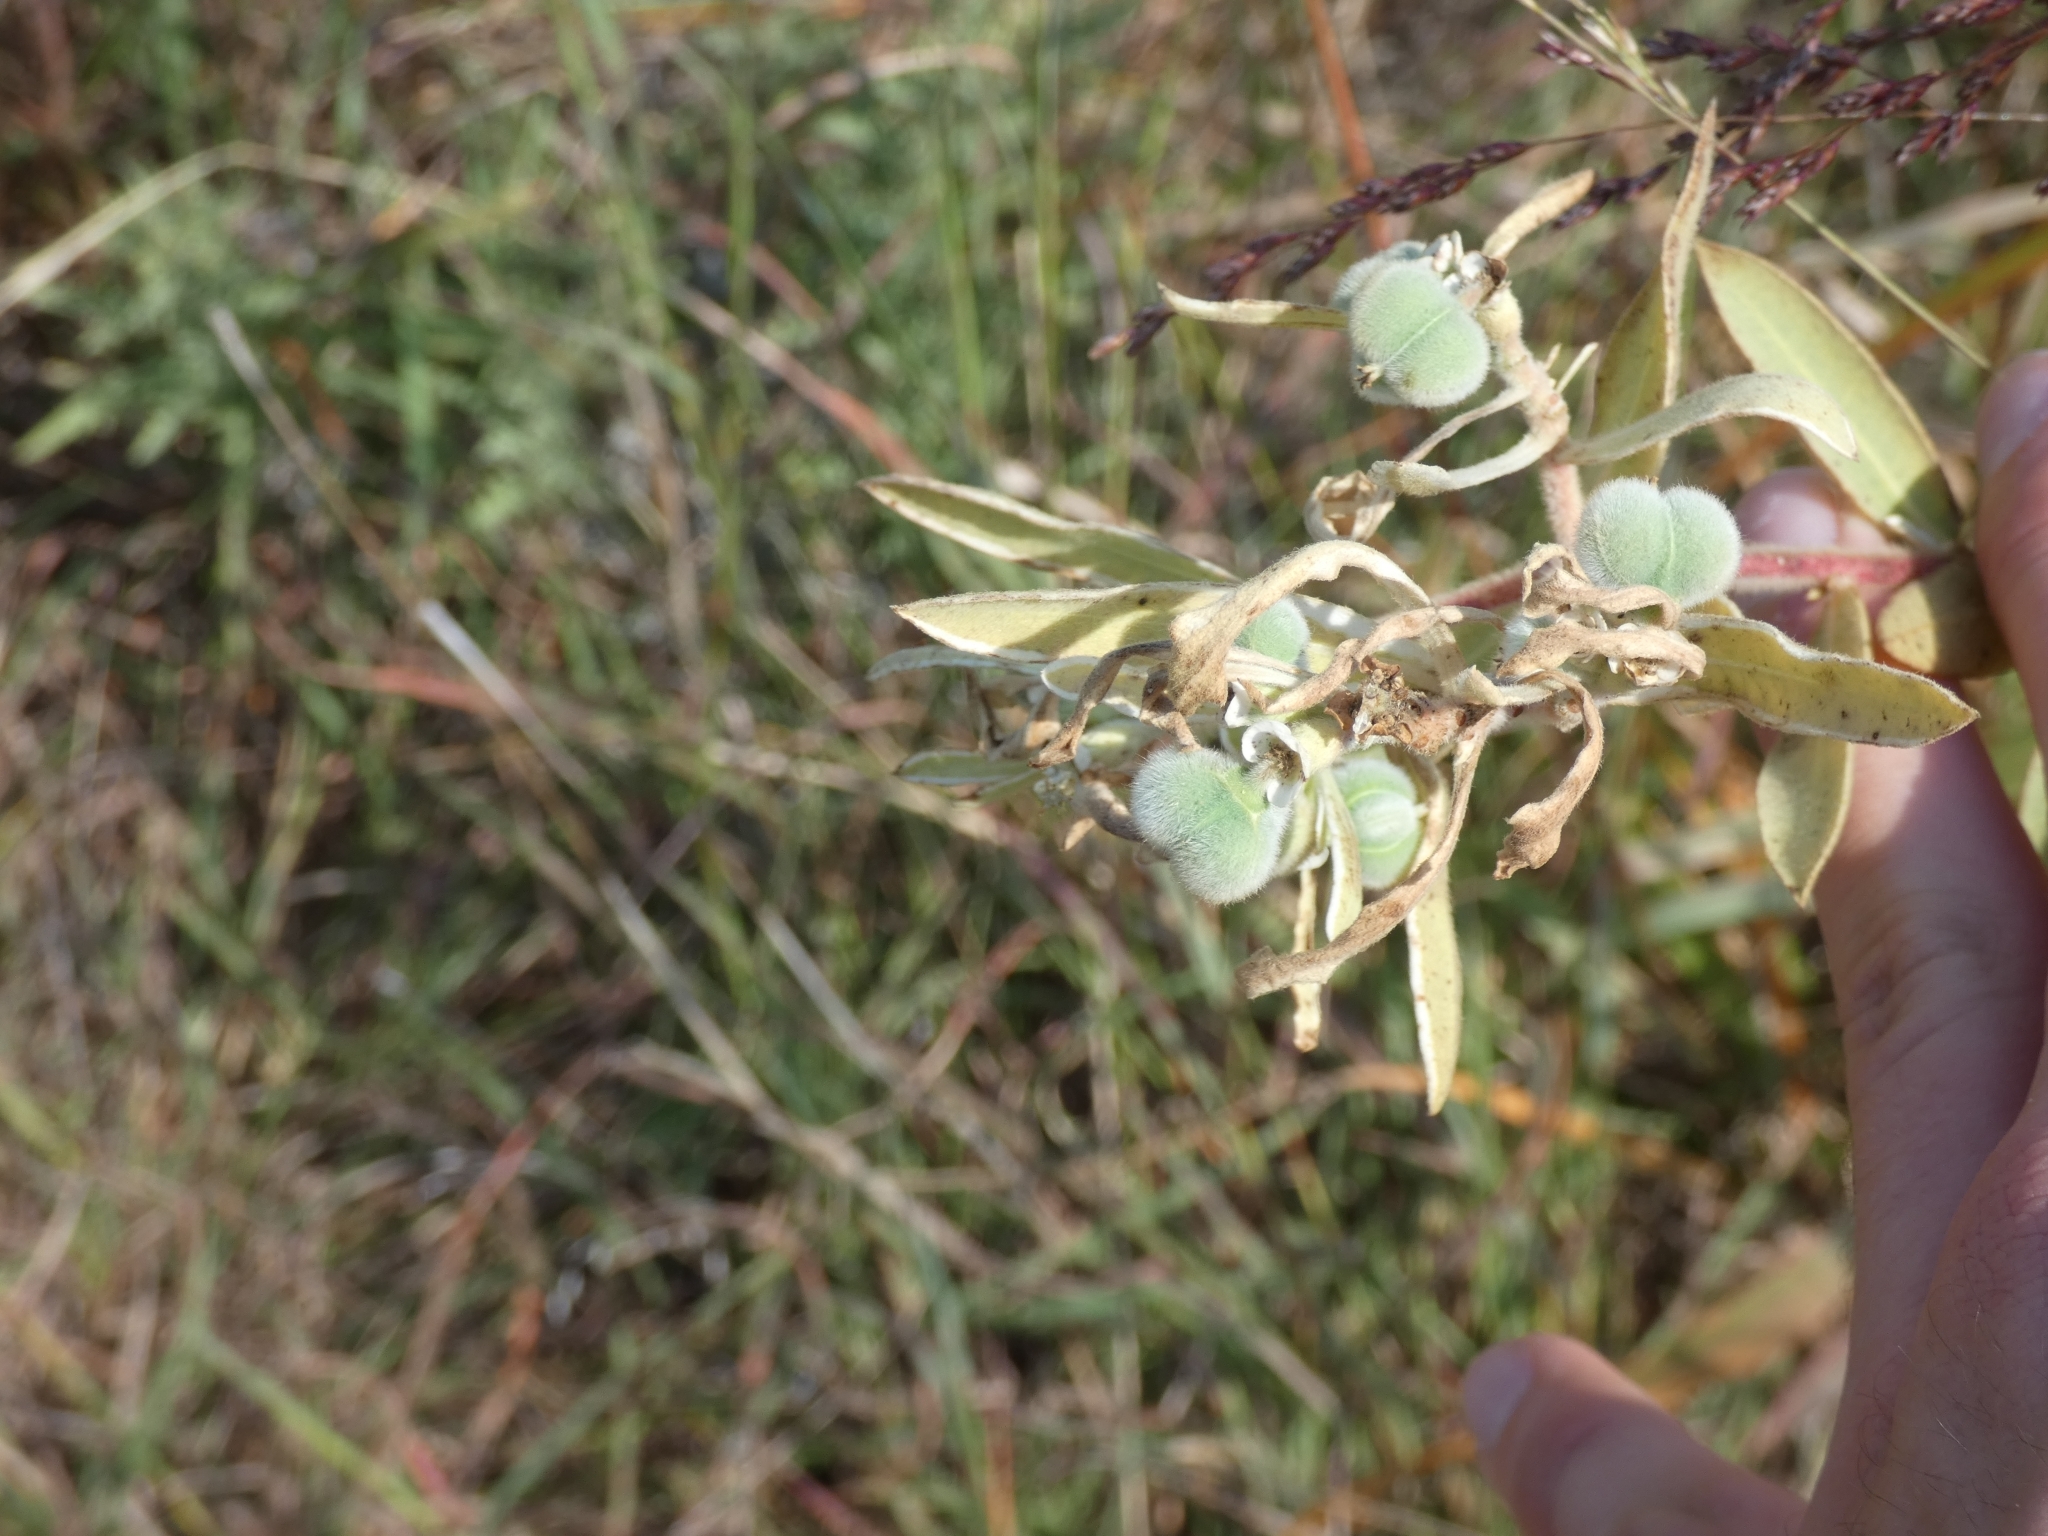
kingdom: Plantae
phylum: Tracheophyta
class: Magnoliopsida
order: Malpighiales
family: Euphorbiaceae
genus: Euphorbia
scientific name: Euphorbia bicolor
